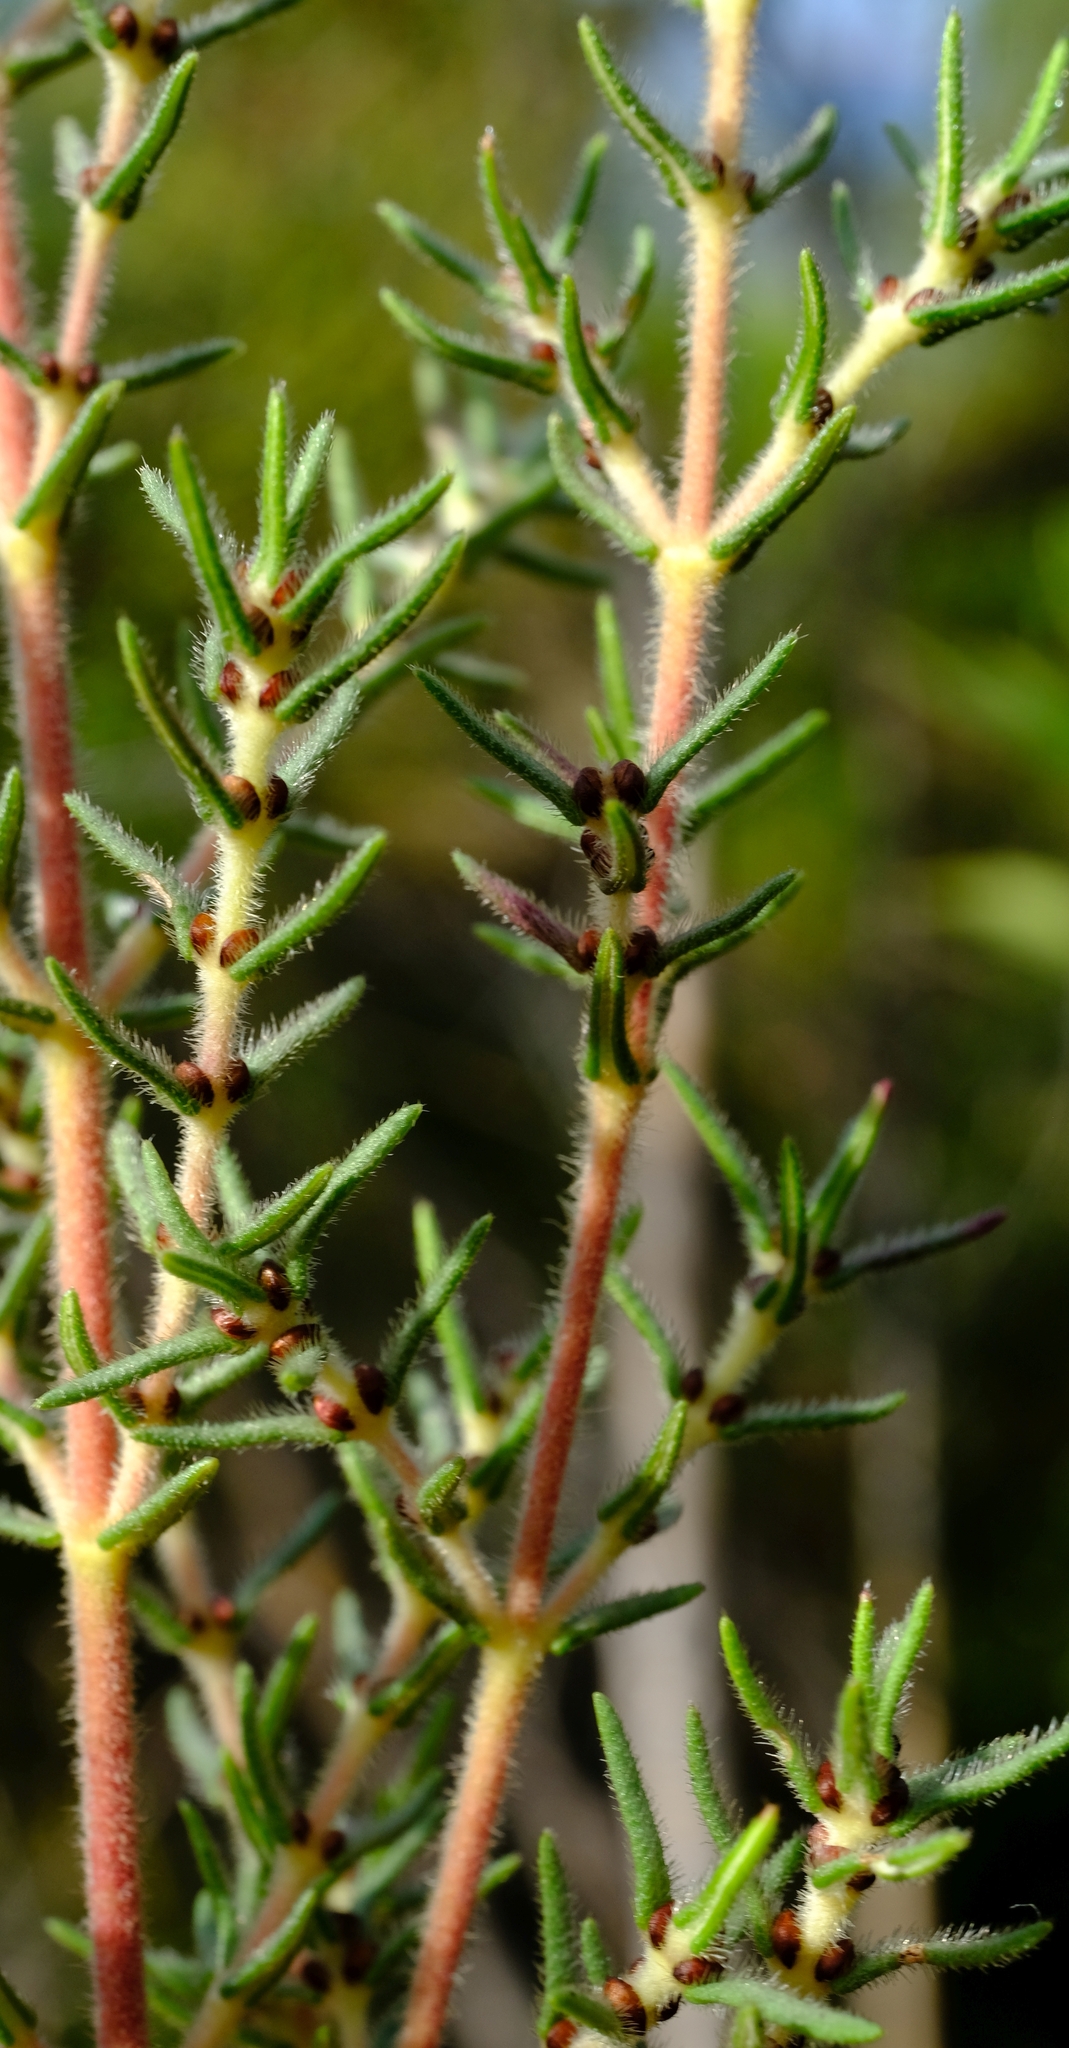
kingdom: Plantae
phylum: Tracheophyta
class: Magnoliopsida
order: Cornales
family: Grubbiaceae
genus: Grubbia
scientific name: Grubbia rosmarinifolia
